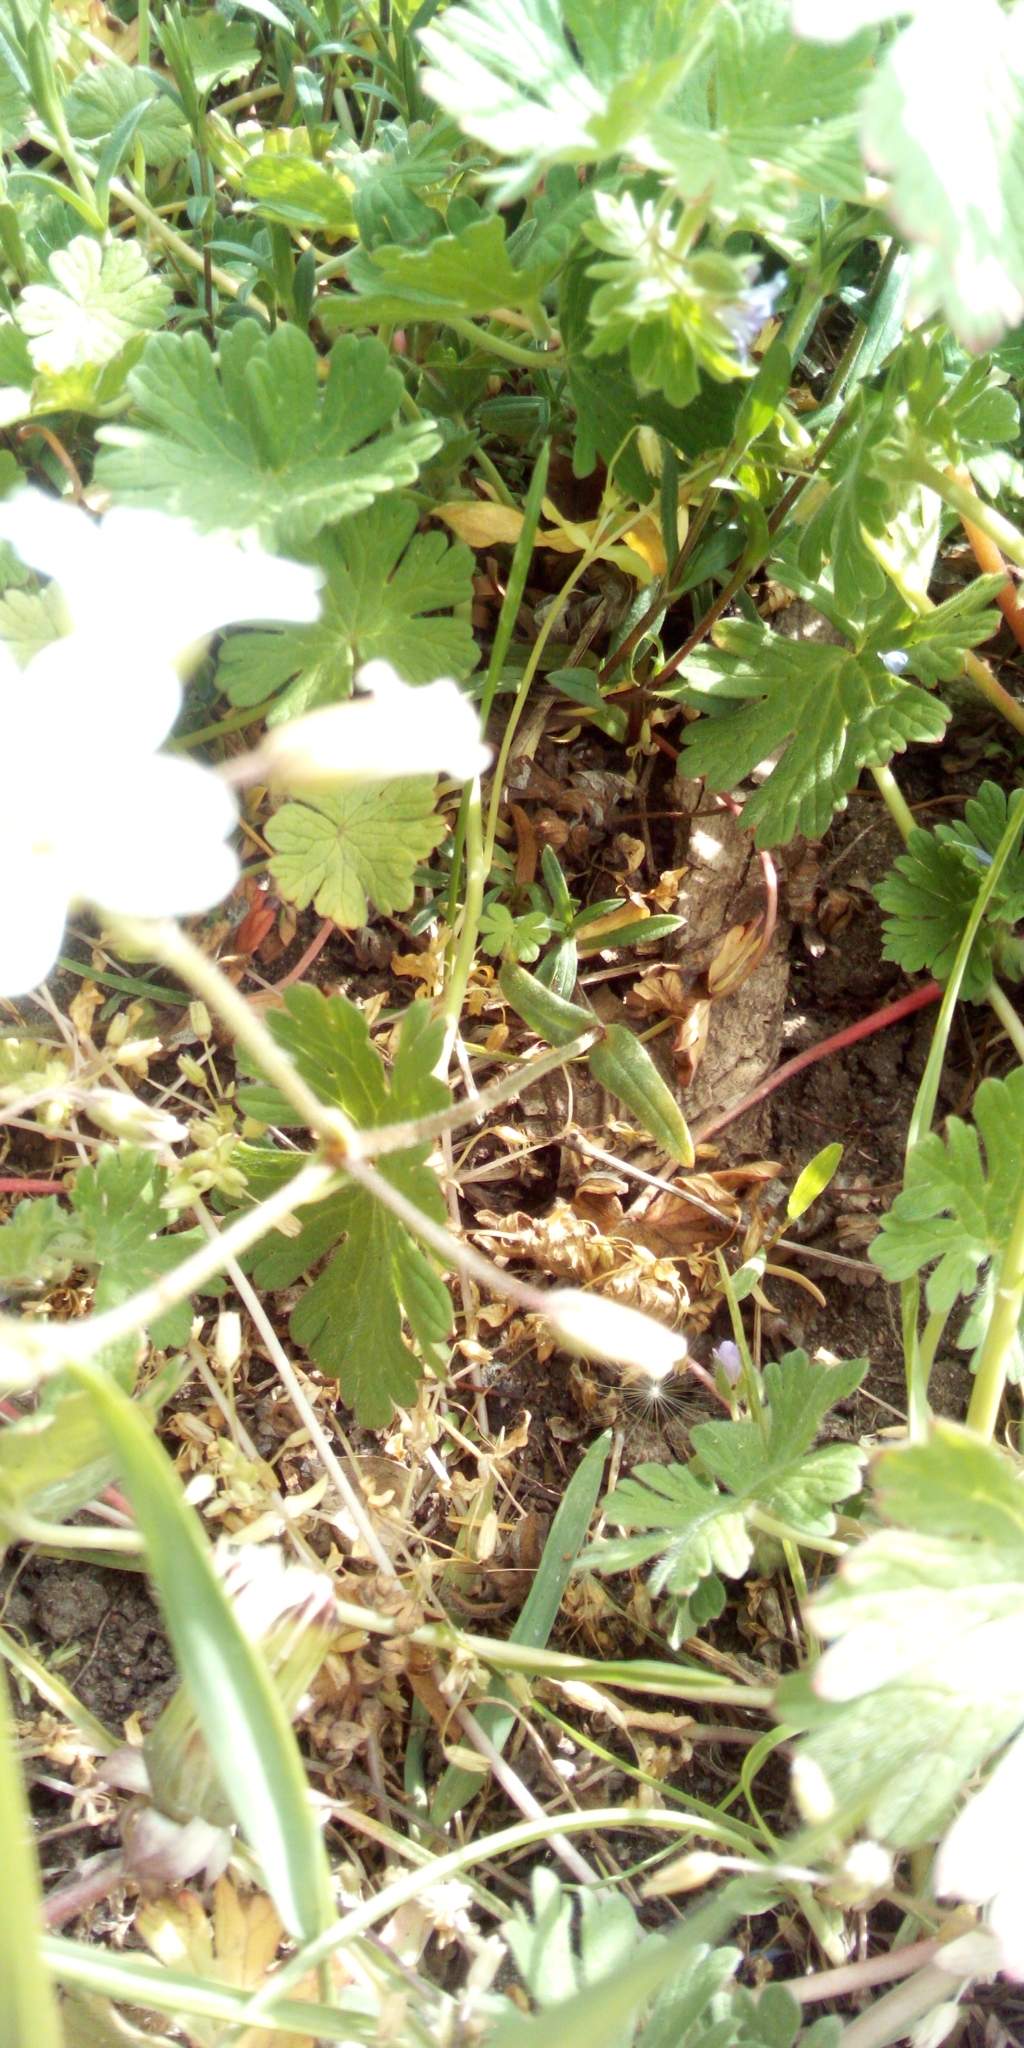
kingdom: Plantae
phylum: Tracheophyta
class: Magnoliopsida
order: Caryophyllales
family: Caryophyllaceae
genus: Cerastium
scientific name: Cerastium arvense
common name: Field mouse-ear
